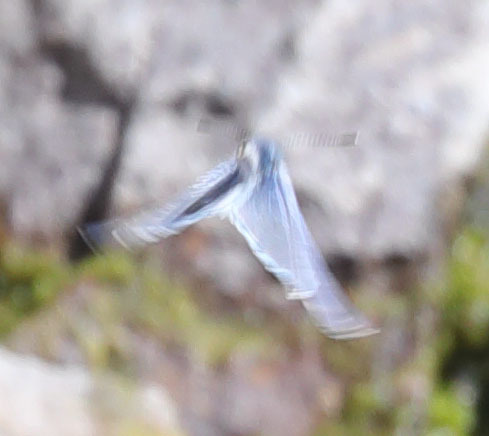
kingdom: Animalia
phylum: Arthropoda
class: Insecta
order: Lepidoptera
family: Lycaenidae
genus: Celastrina
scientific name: Celastrina ladon
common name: Spring azure
